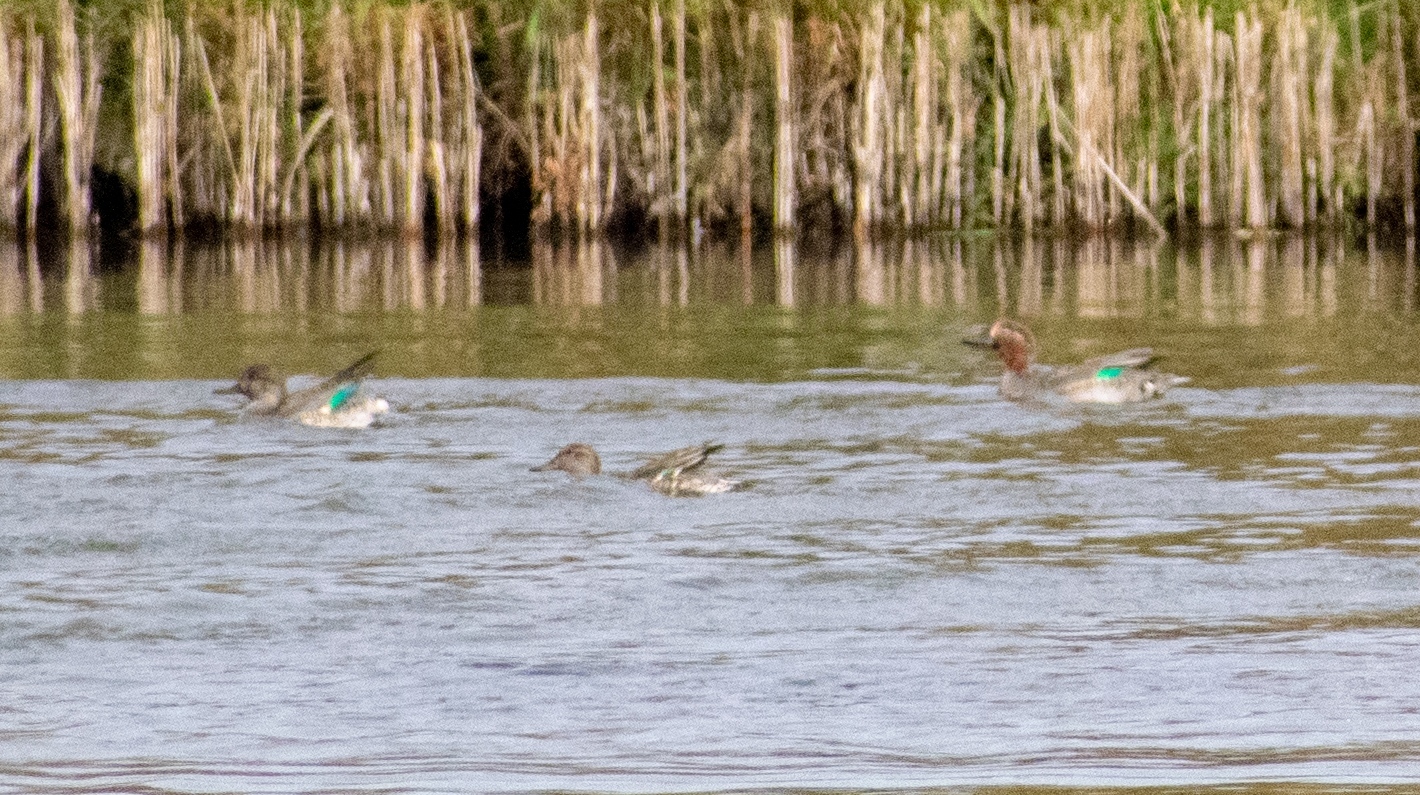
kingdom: Animalia
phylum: Chordata
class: Aves
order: Anseriformes
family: Anatidae
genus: Anas
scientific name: Anas crecca
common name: Eurasian teal
